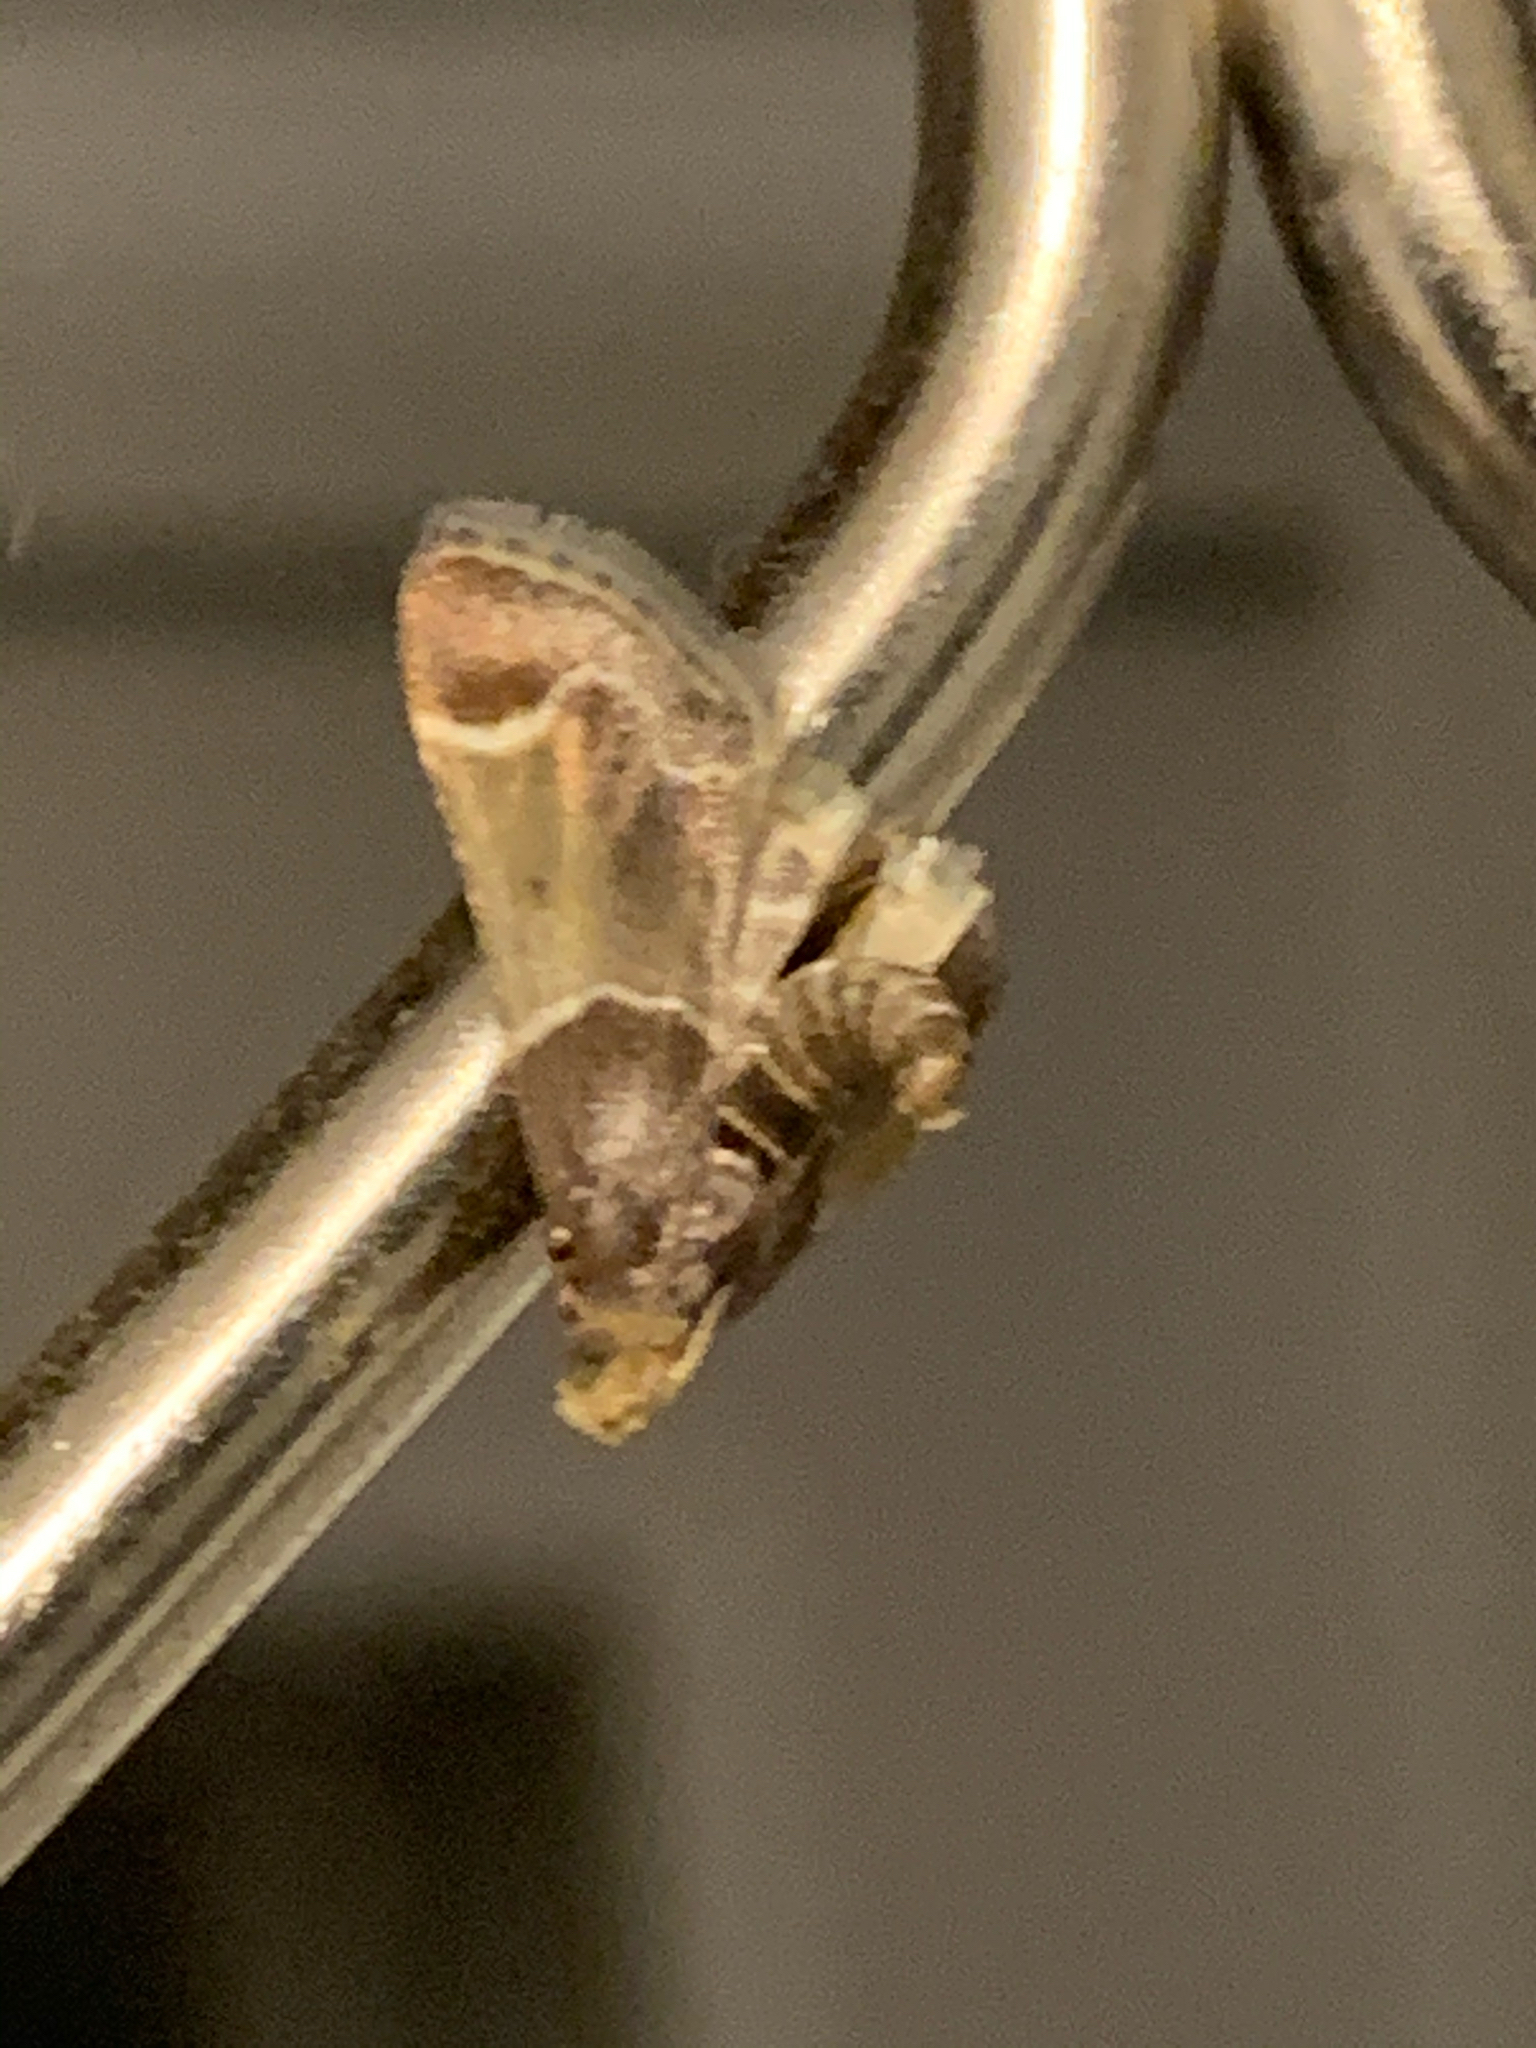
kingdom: Animalia
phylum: Arthropoda
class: Insecta
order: Lepidoptera
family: Pyralidae
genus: Pyralis
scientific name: Pyralis farinalis
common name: Meal moth
